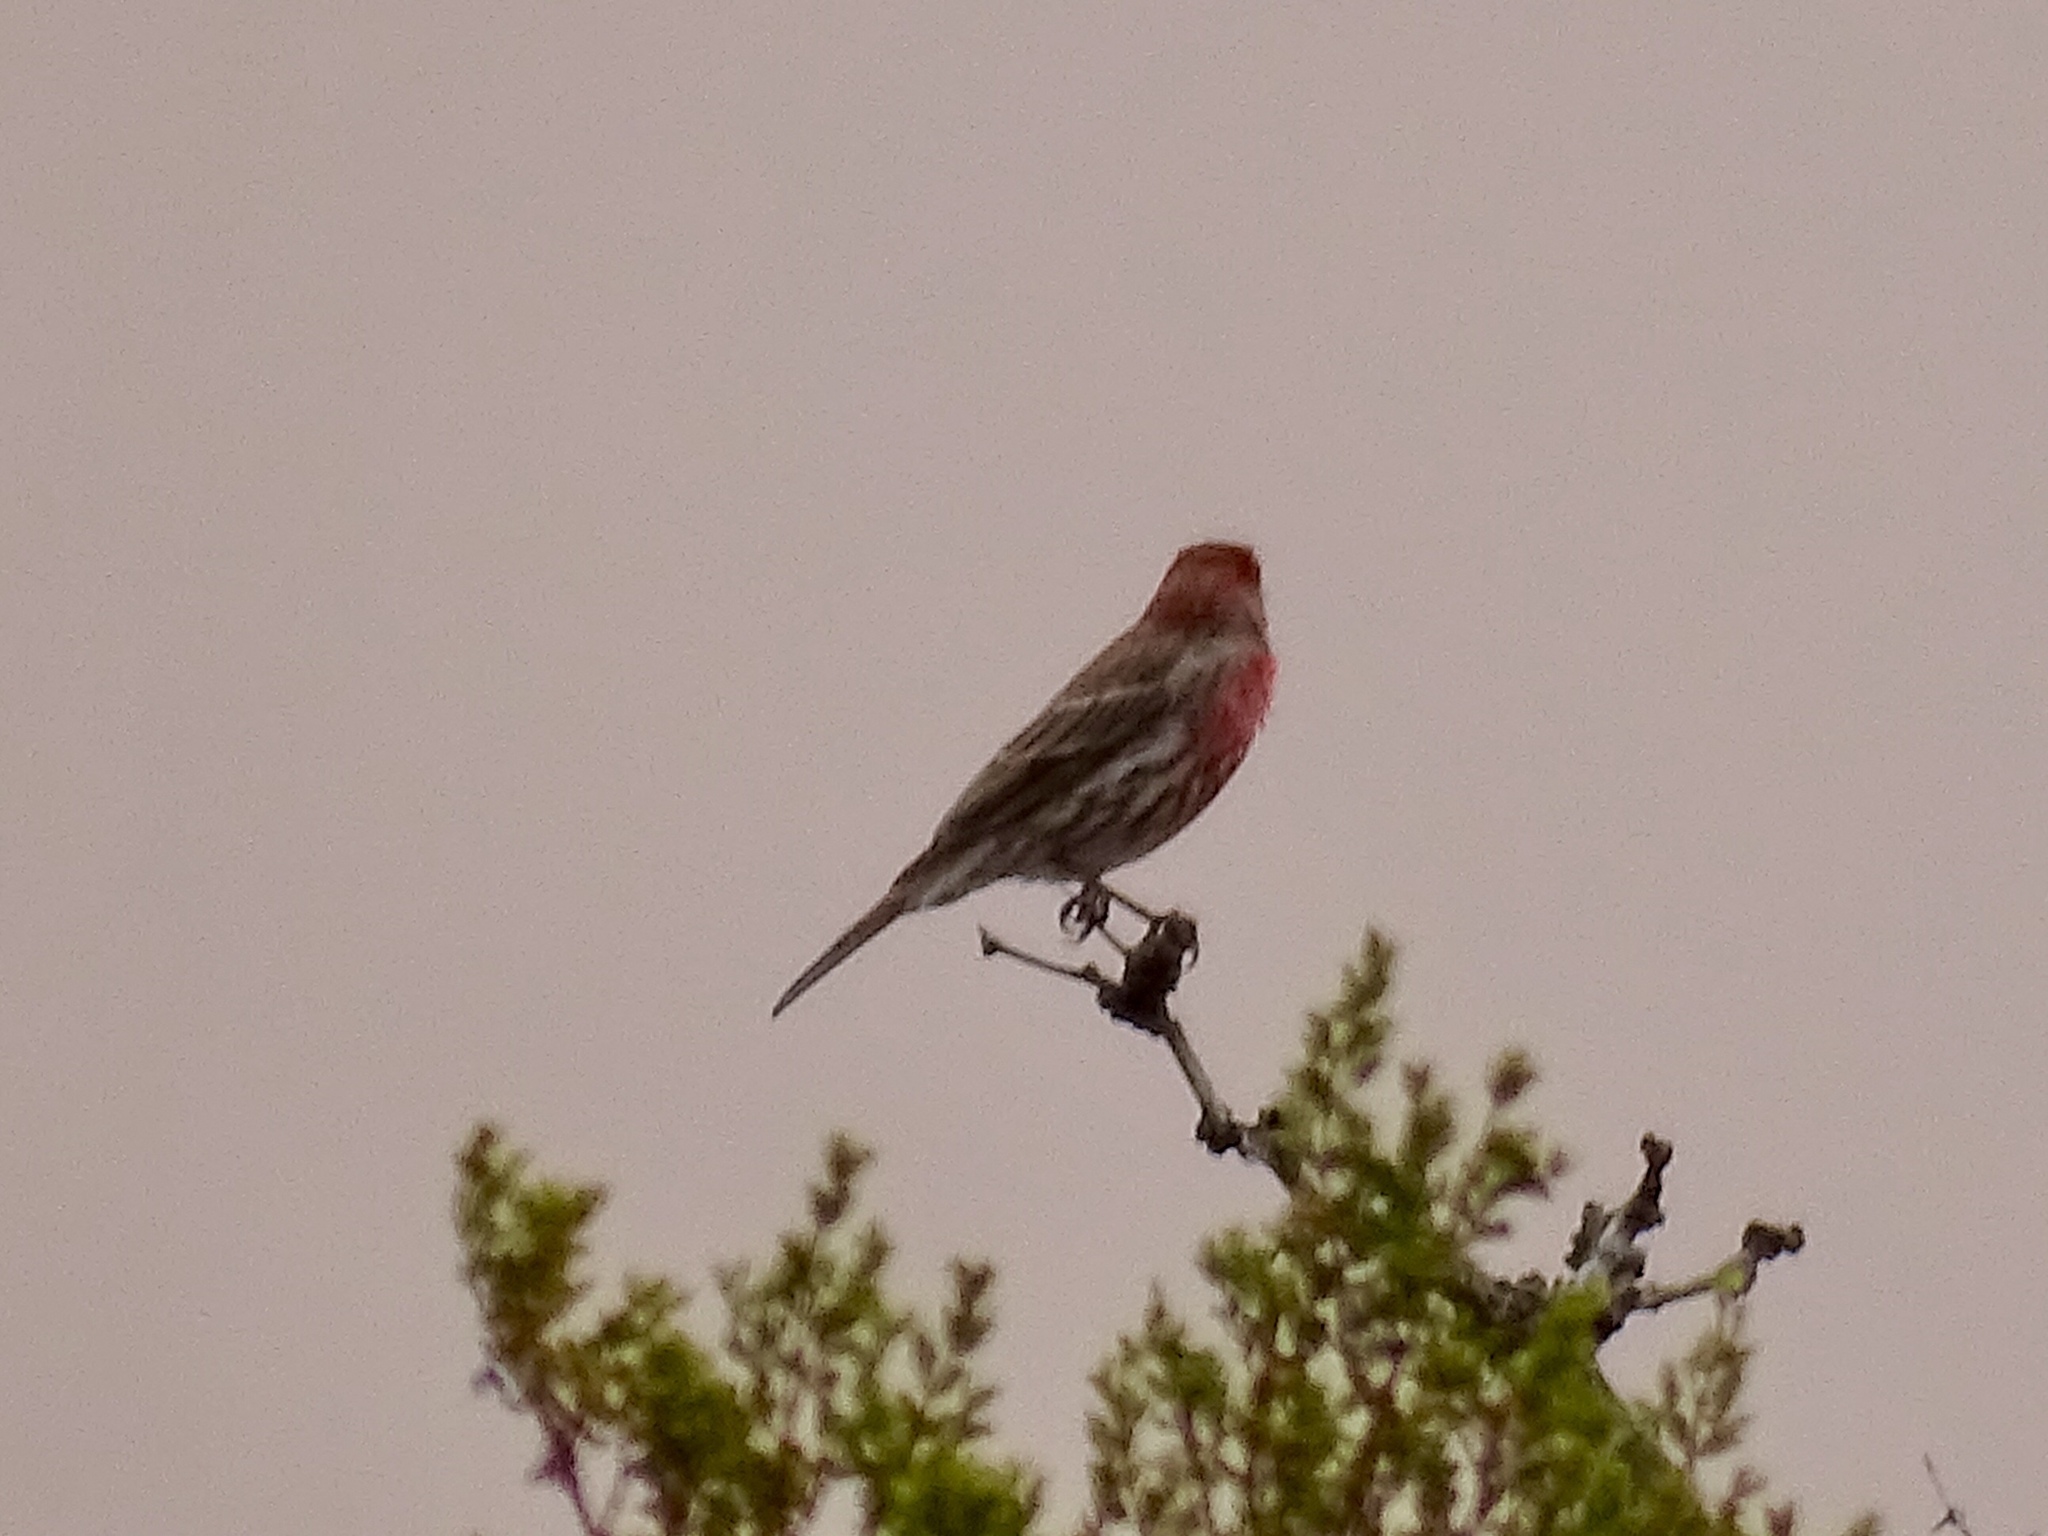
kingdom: Animalia
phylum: Chordata
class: Aves
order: Passeriformes
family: Fringillidae
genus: Haemorhous
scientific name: Haemorhous mexicanus
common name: House finch
